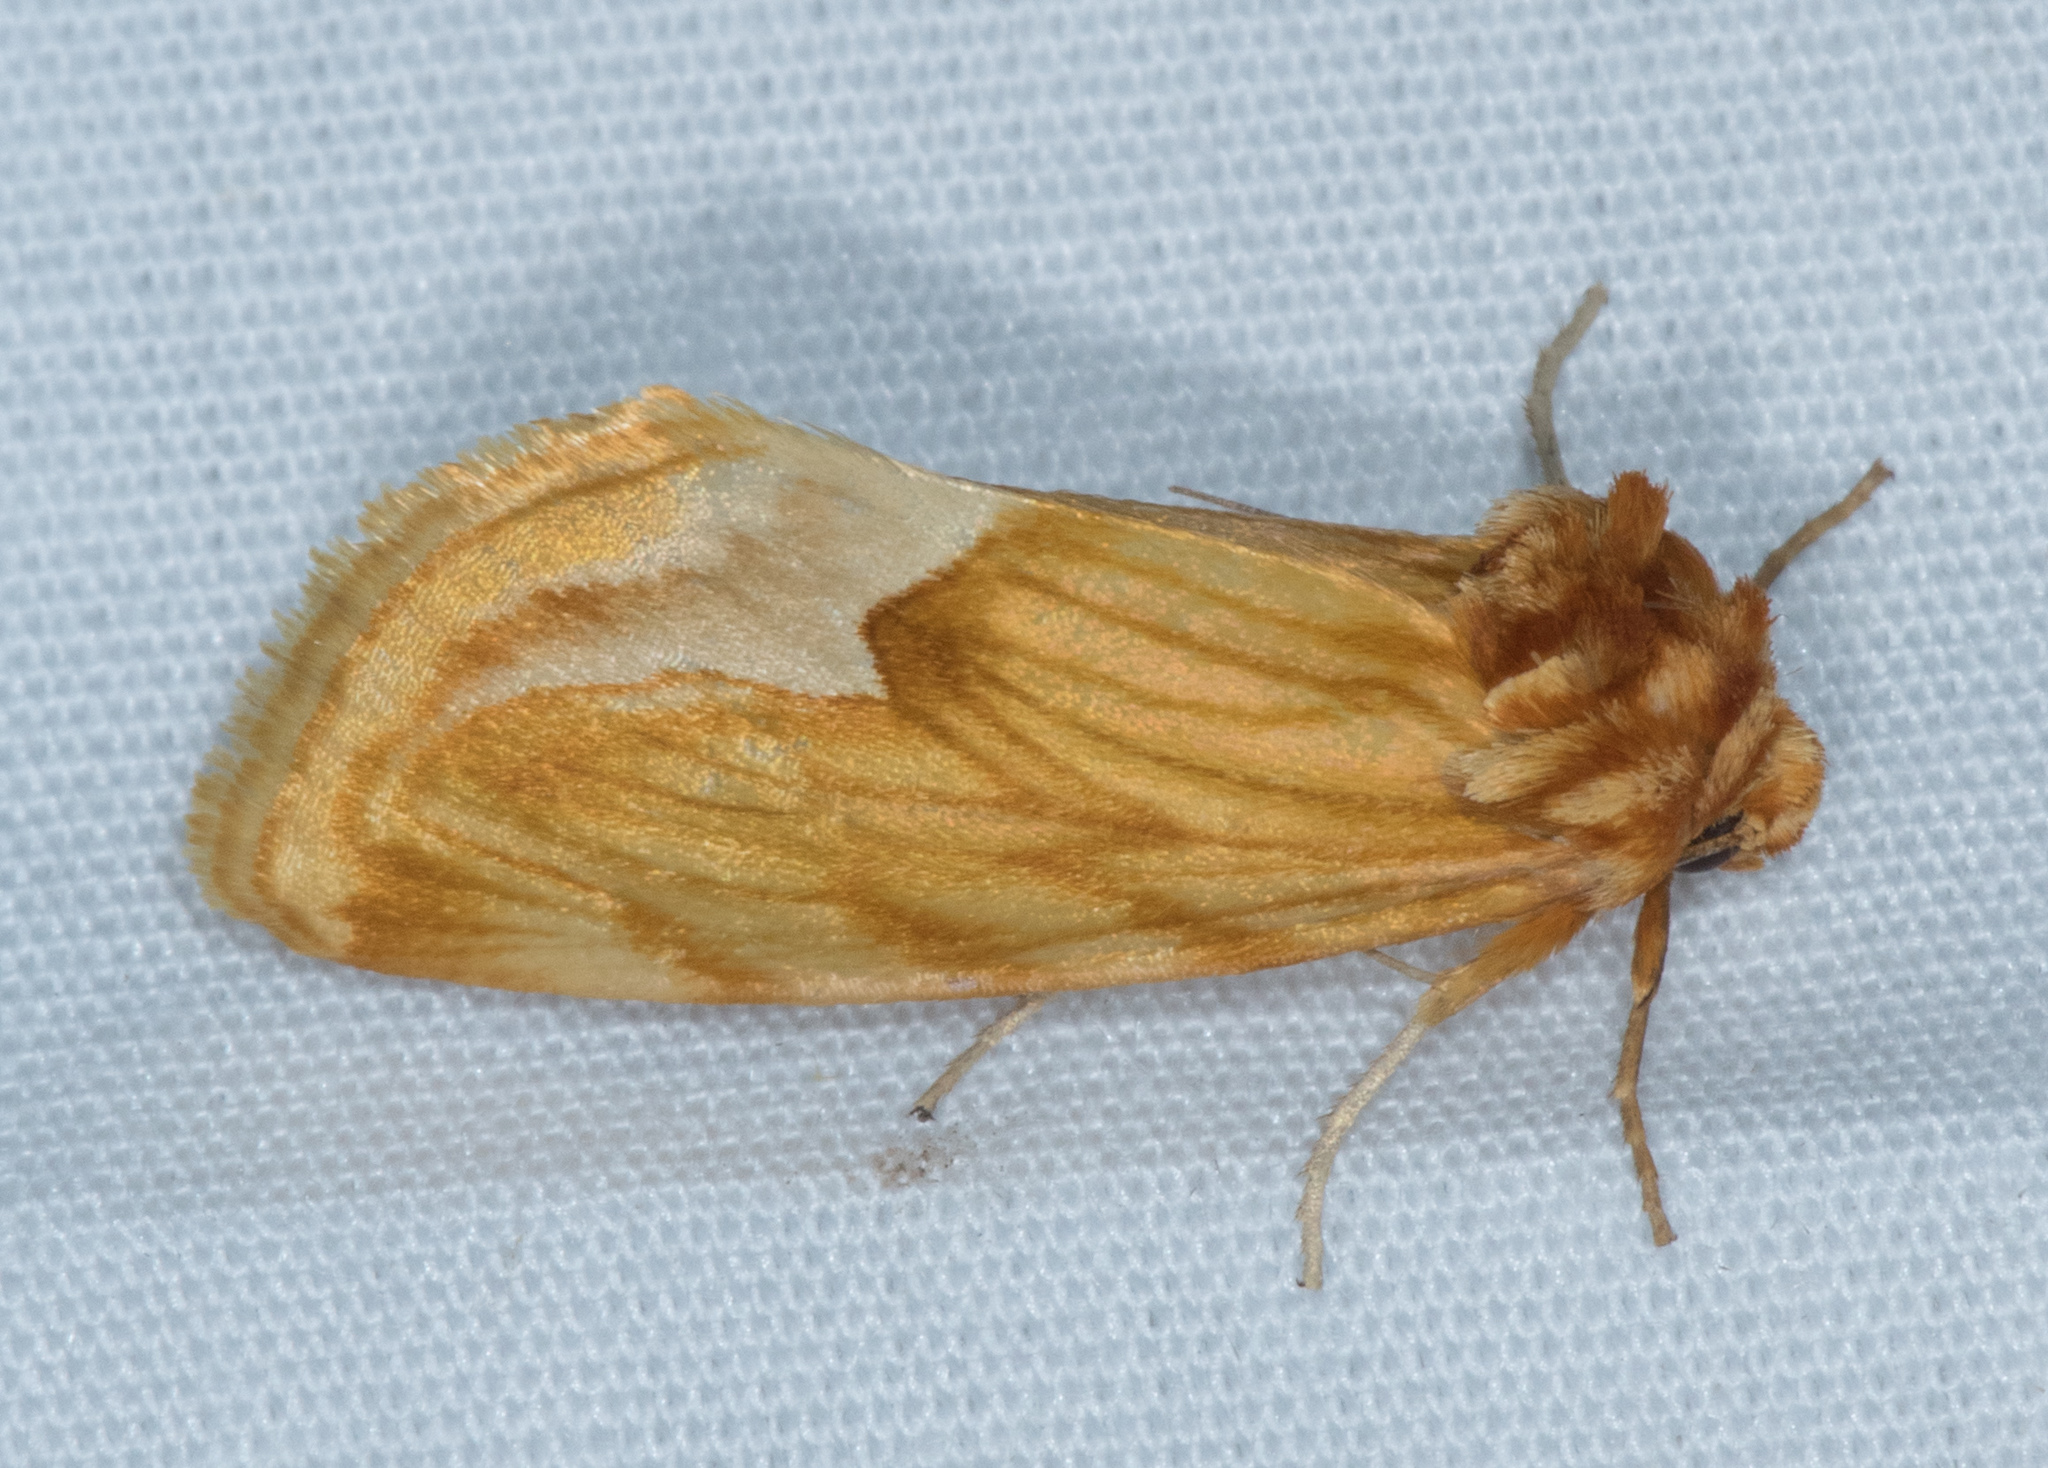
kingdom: Animalia
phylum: Arthropoda
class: Insecta
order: Lepidoptera
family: Noctuidae
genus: Cirrhophanus
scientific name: Cirrhophanus dyari
